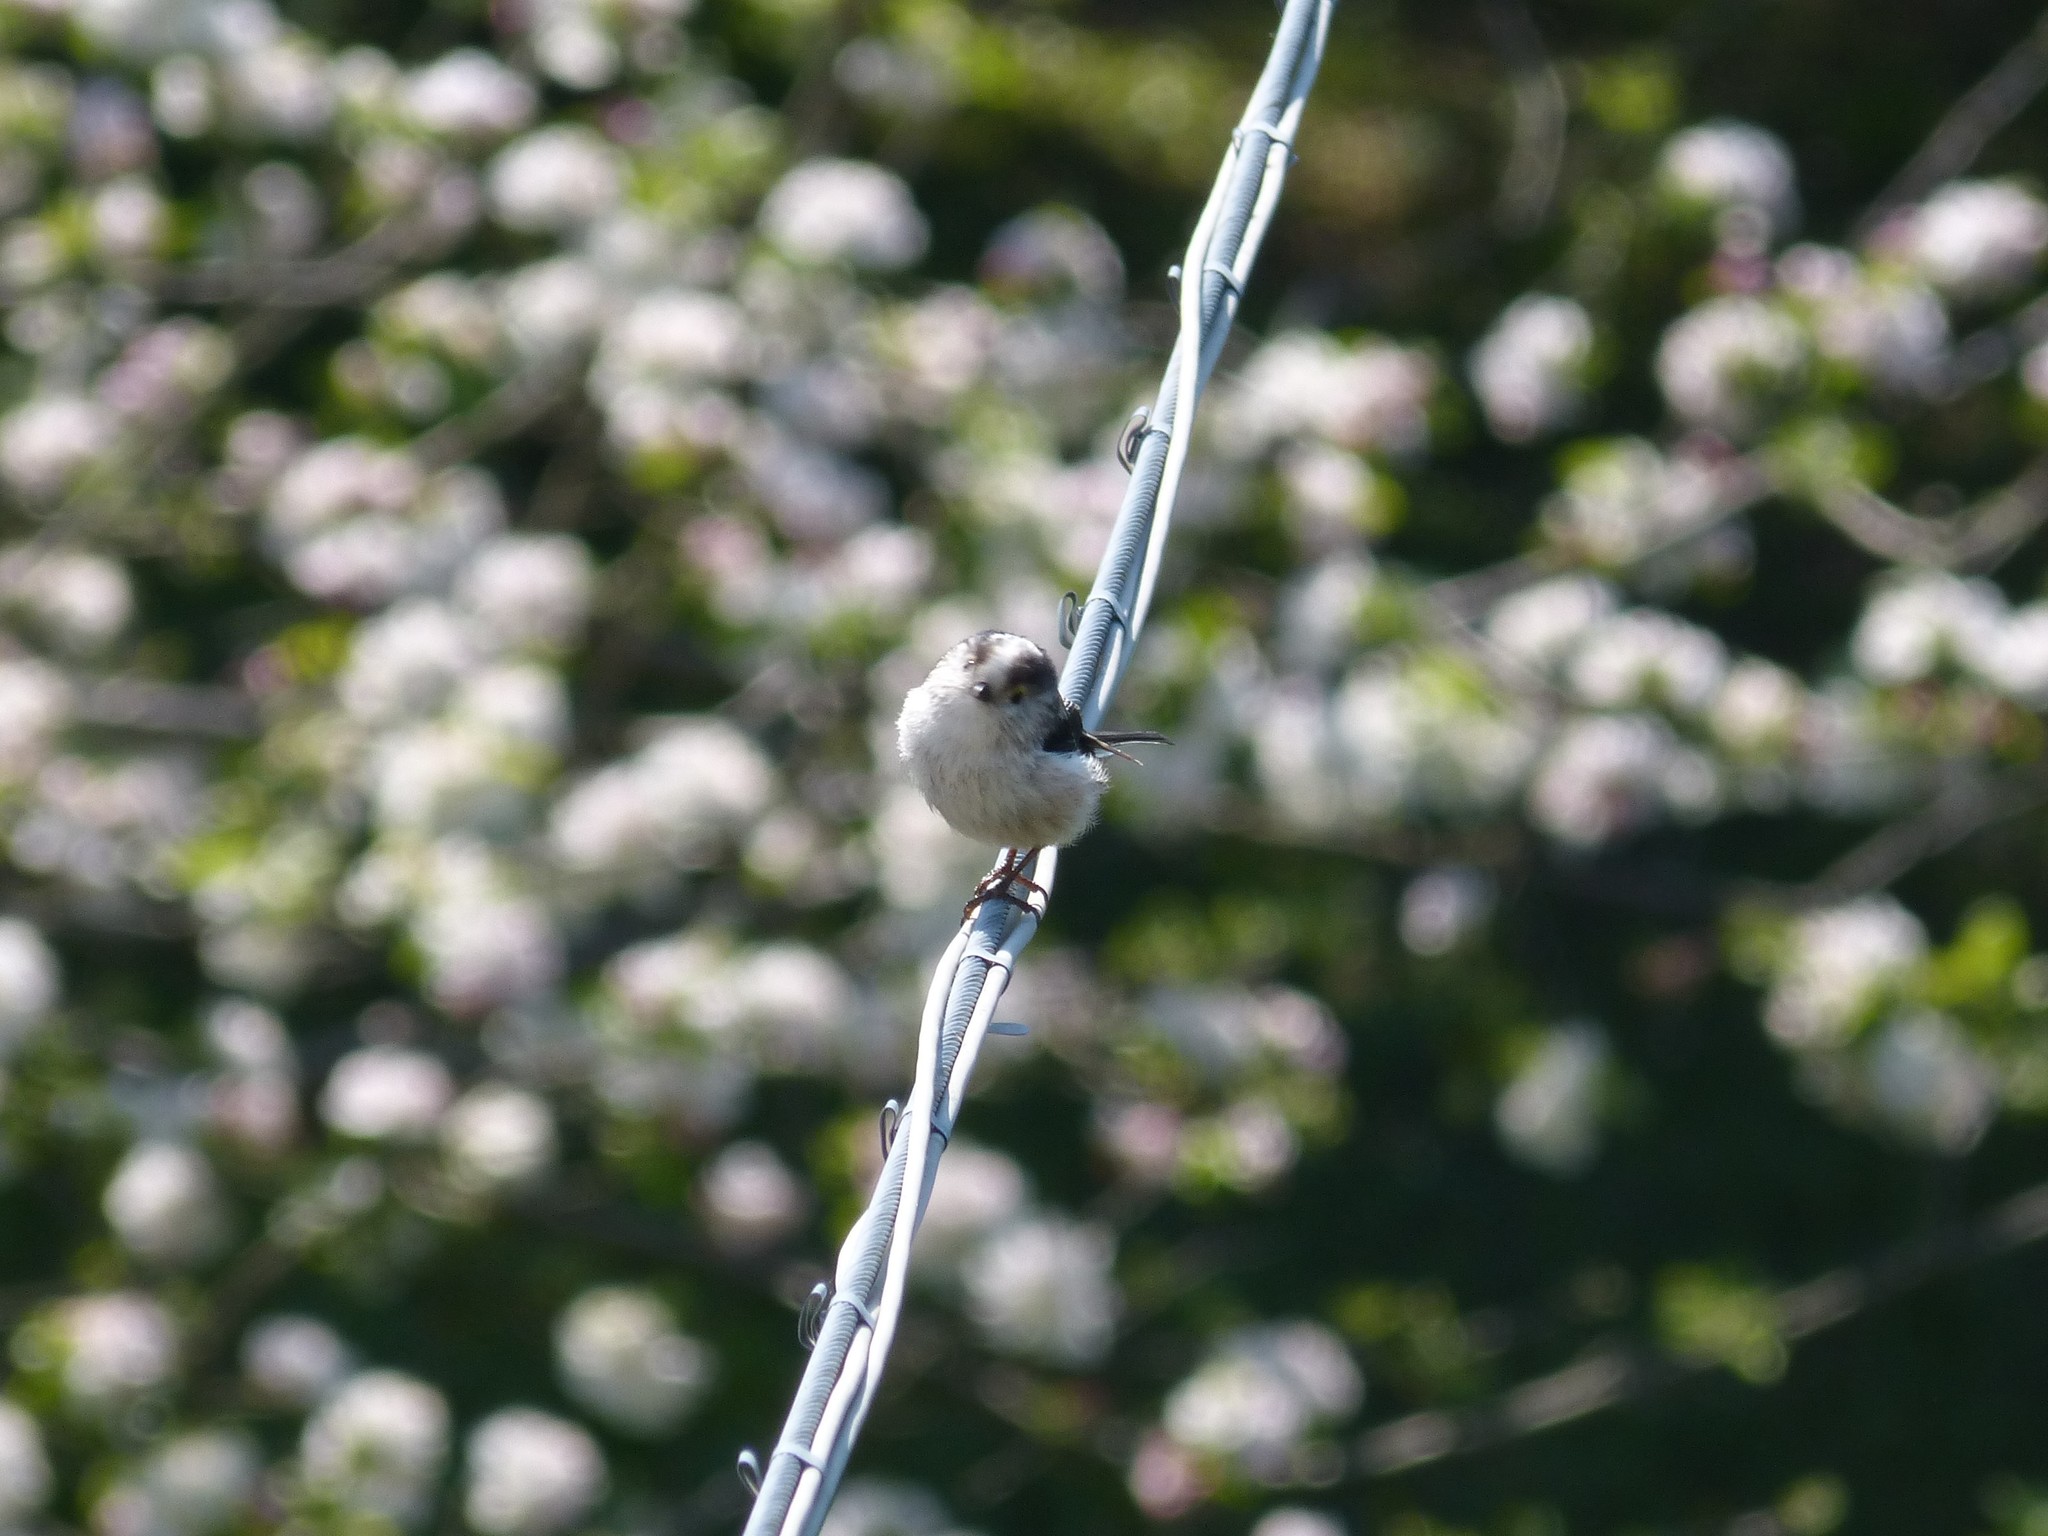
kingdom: Animalia
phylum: Chordata
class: Aves
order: Passeriformes
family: Aegithalidae
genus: Aegithalos
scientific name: Aegithalos caudatus
